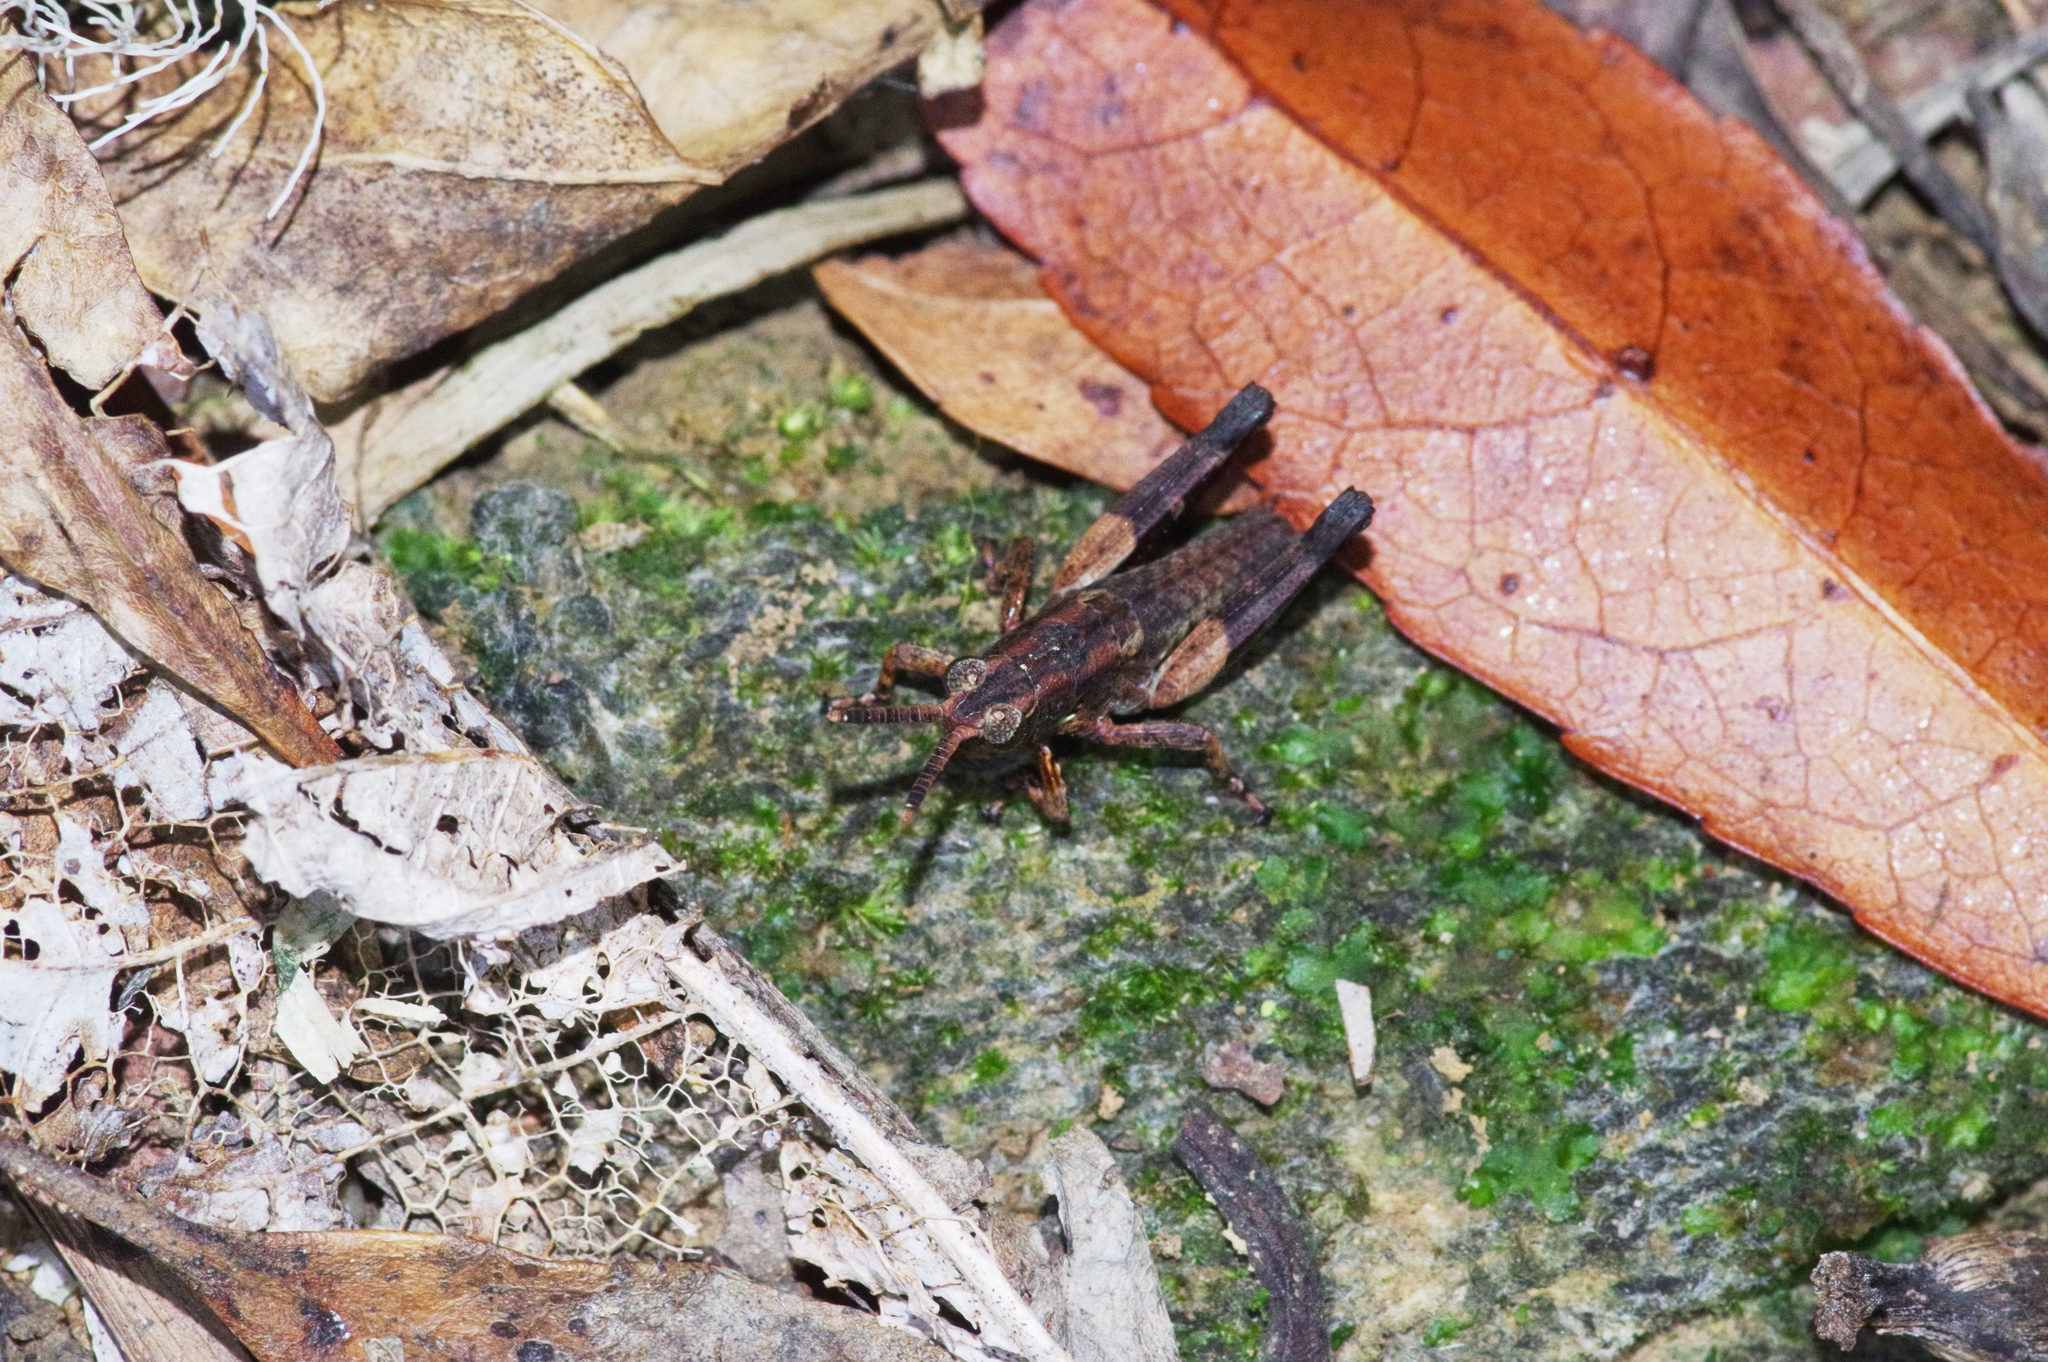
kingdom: Animalia
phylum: Arthropoda
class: Insecta
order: Orthoptera
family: Acrididae
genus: Traulia
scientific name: Traulia ornata
